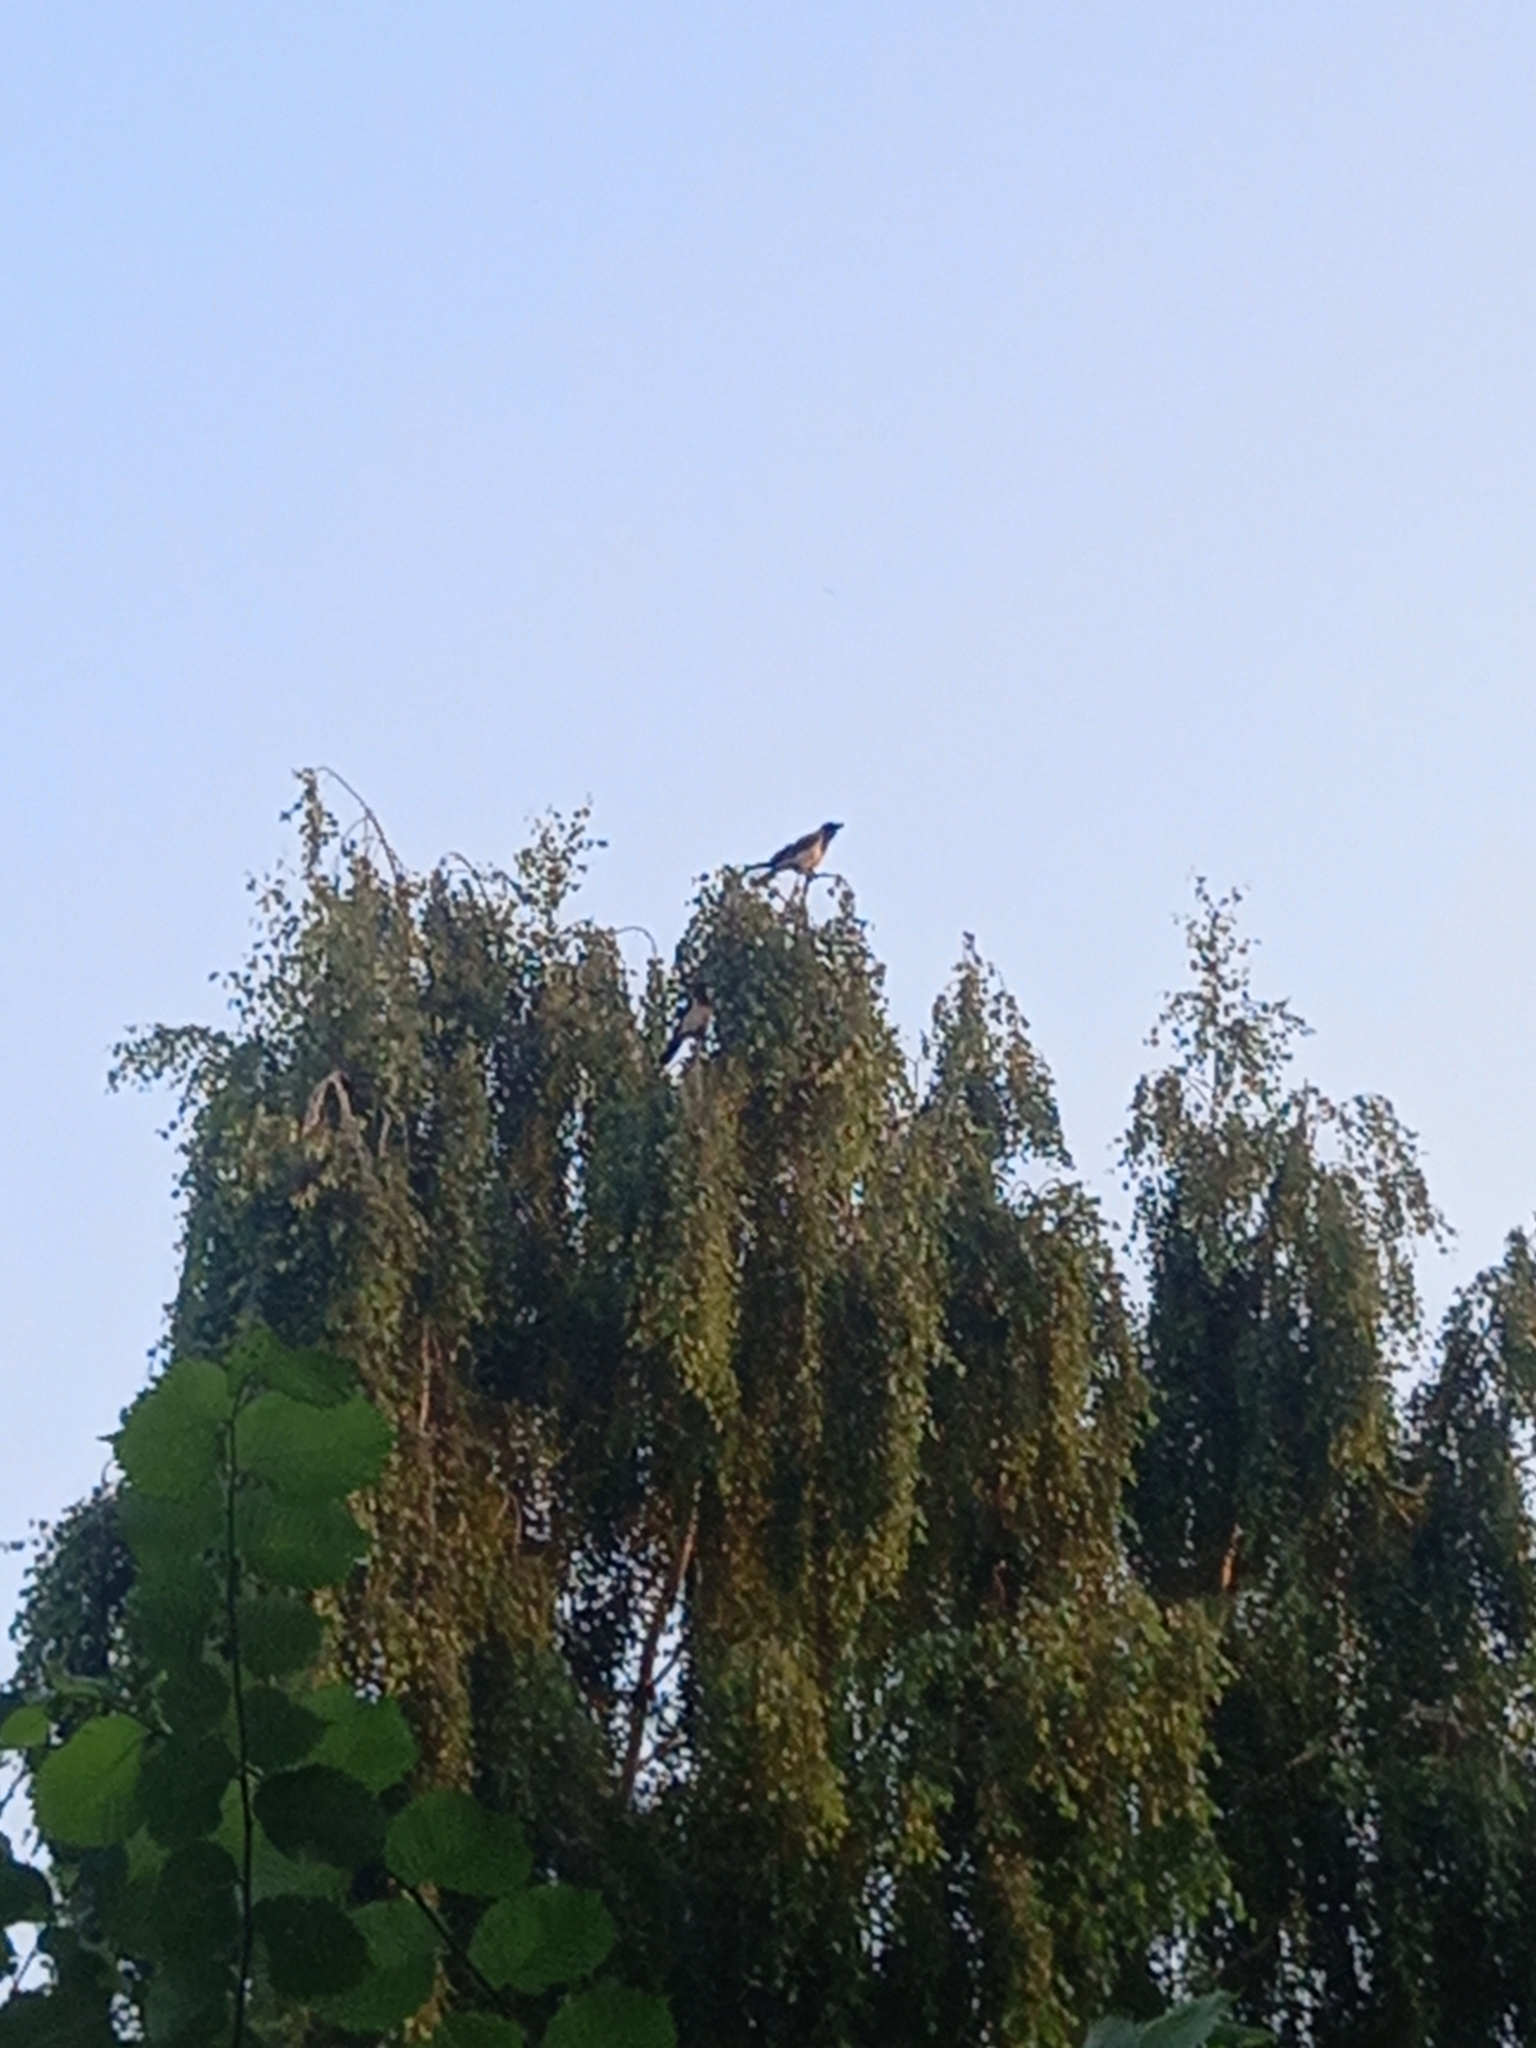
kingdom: Animalia
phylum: Chordata
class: Aves
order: Passeriformes
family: Corvidae
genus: Corvus
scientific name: Corvus cornix
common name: Hooded crow
